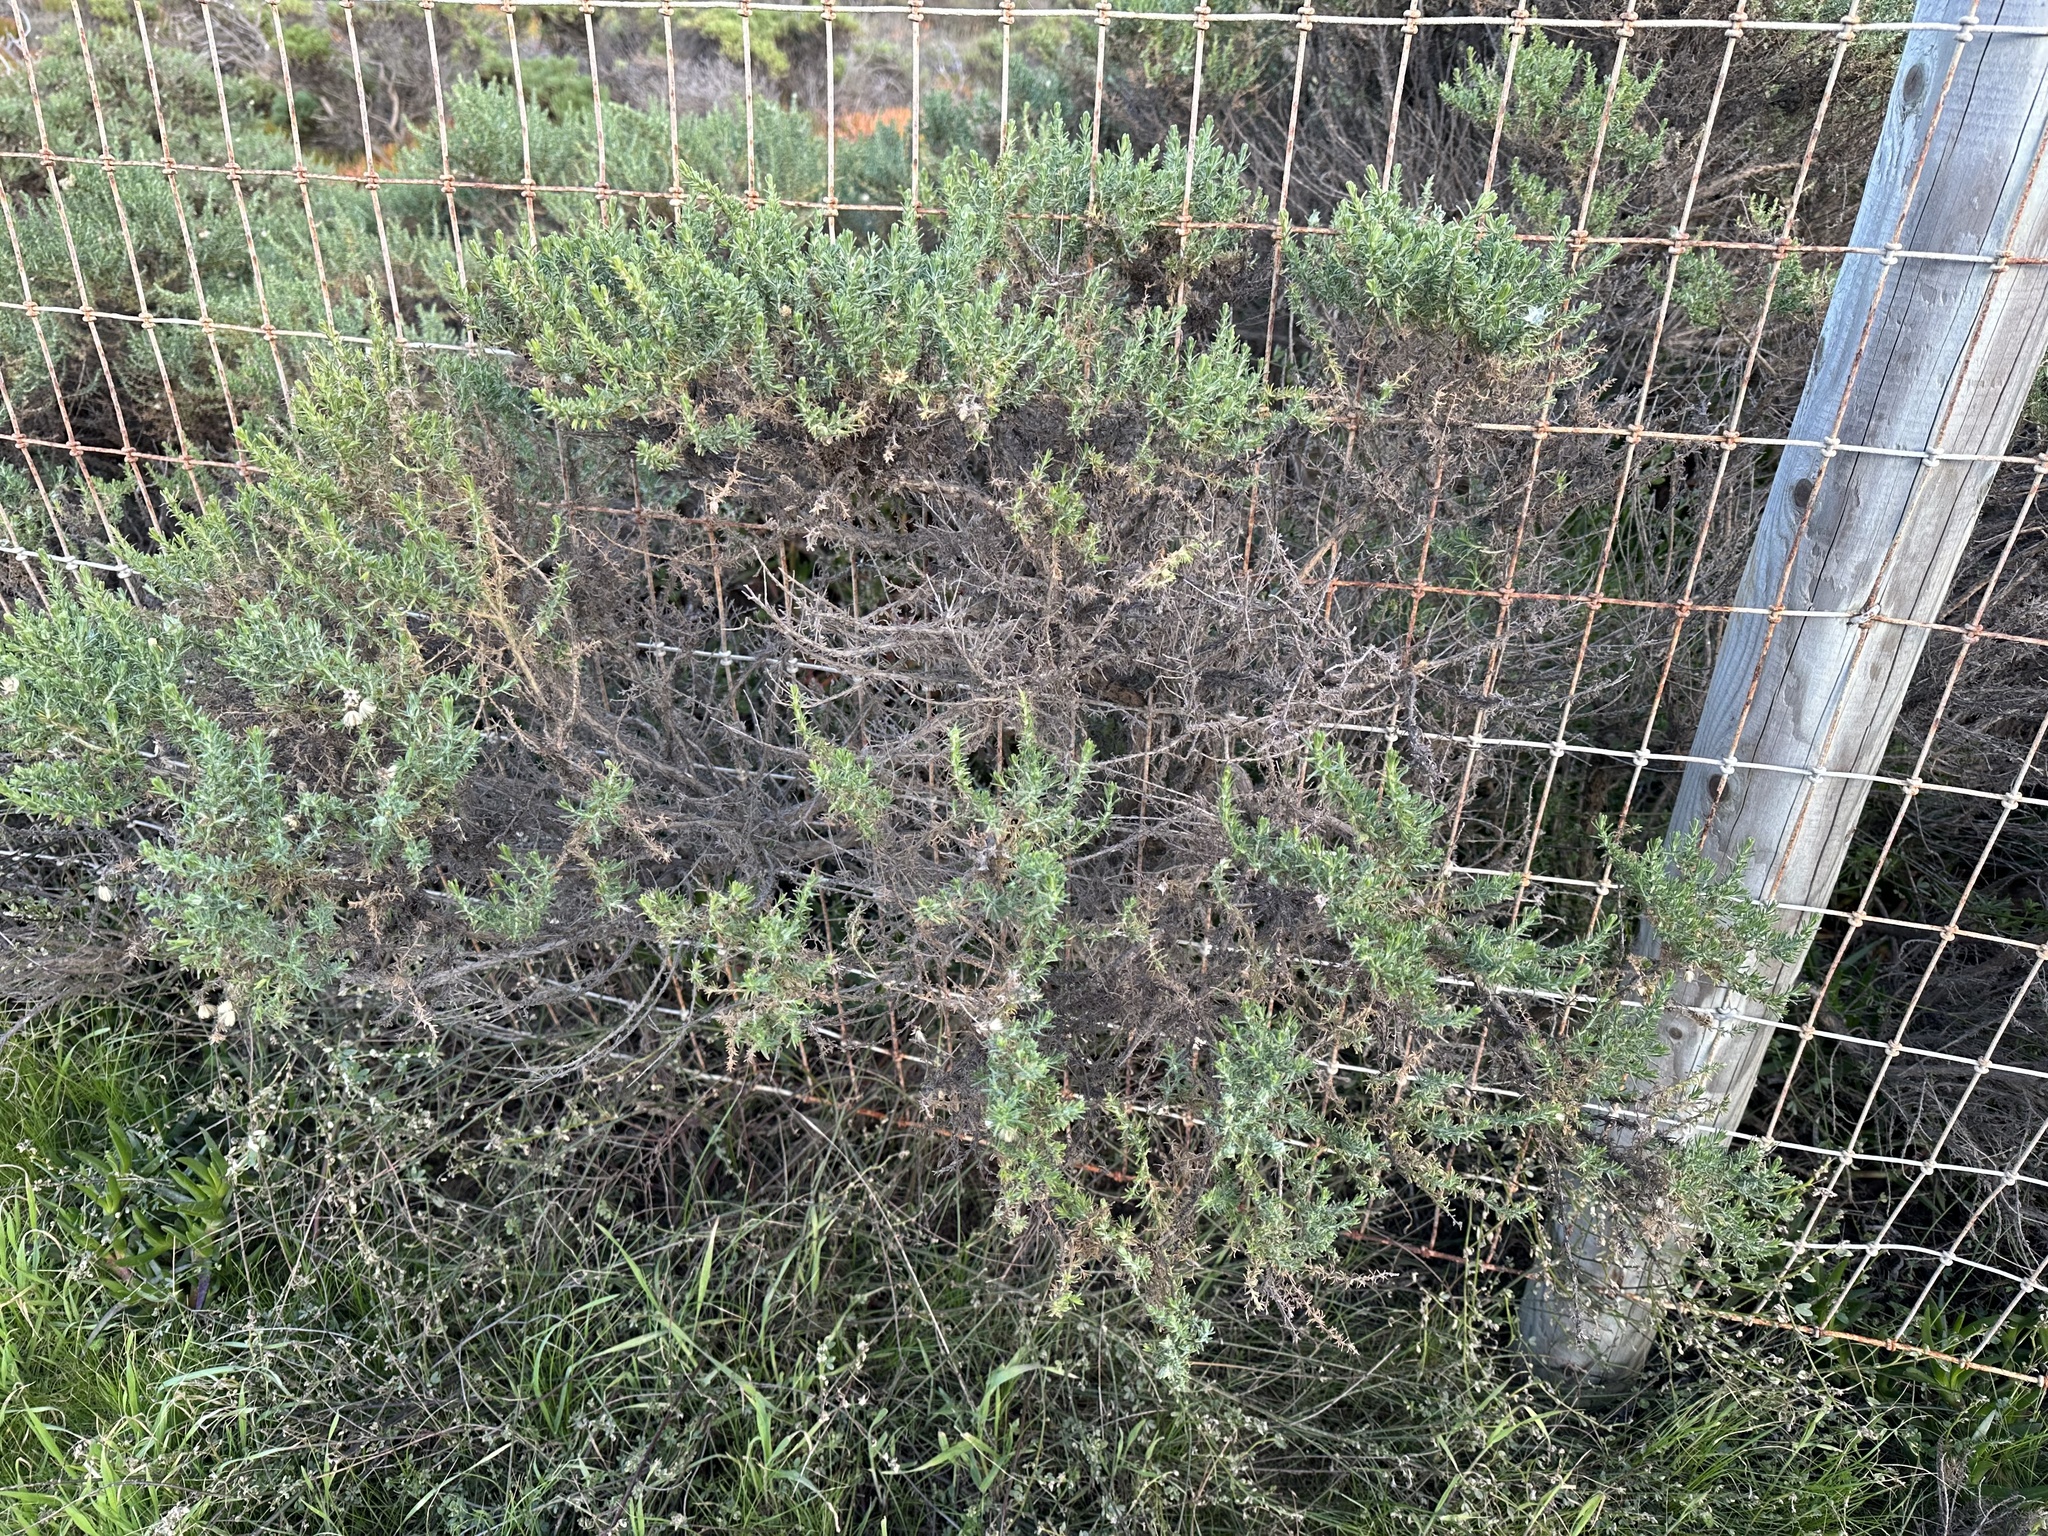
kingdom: Animalia
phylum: Arthropoda
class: Insecta
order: Diptera
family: Cecidomyiidae
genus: Rhopalomyia
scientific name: Rhopalomyia ericameriae
